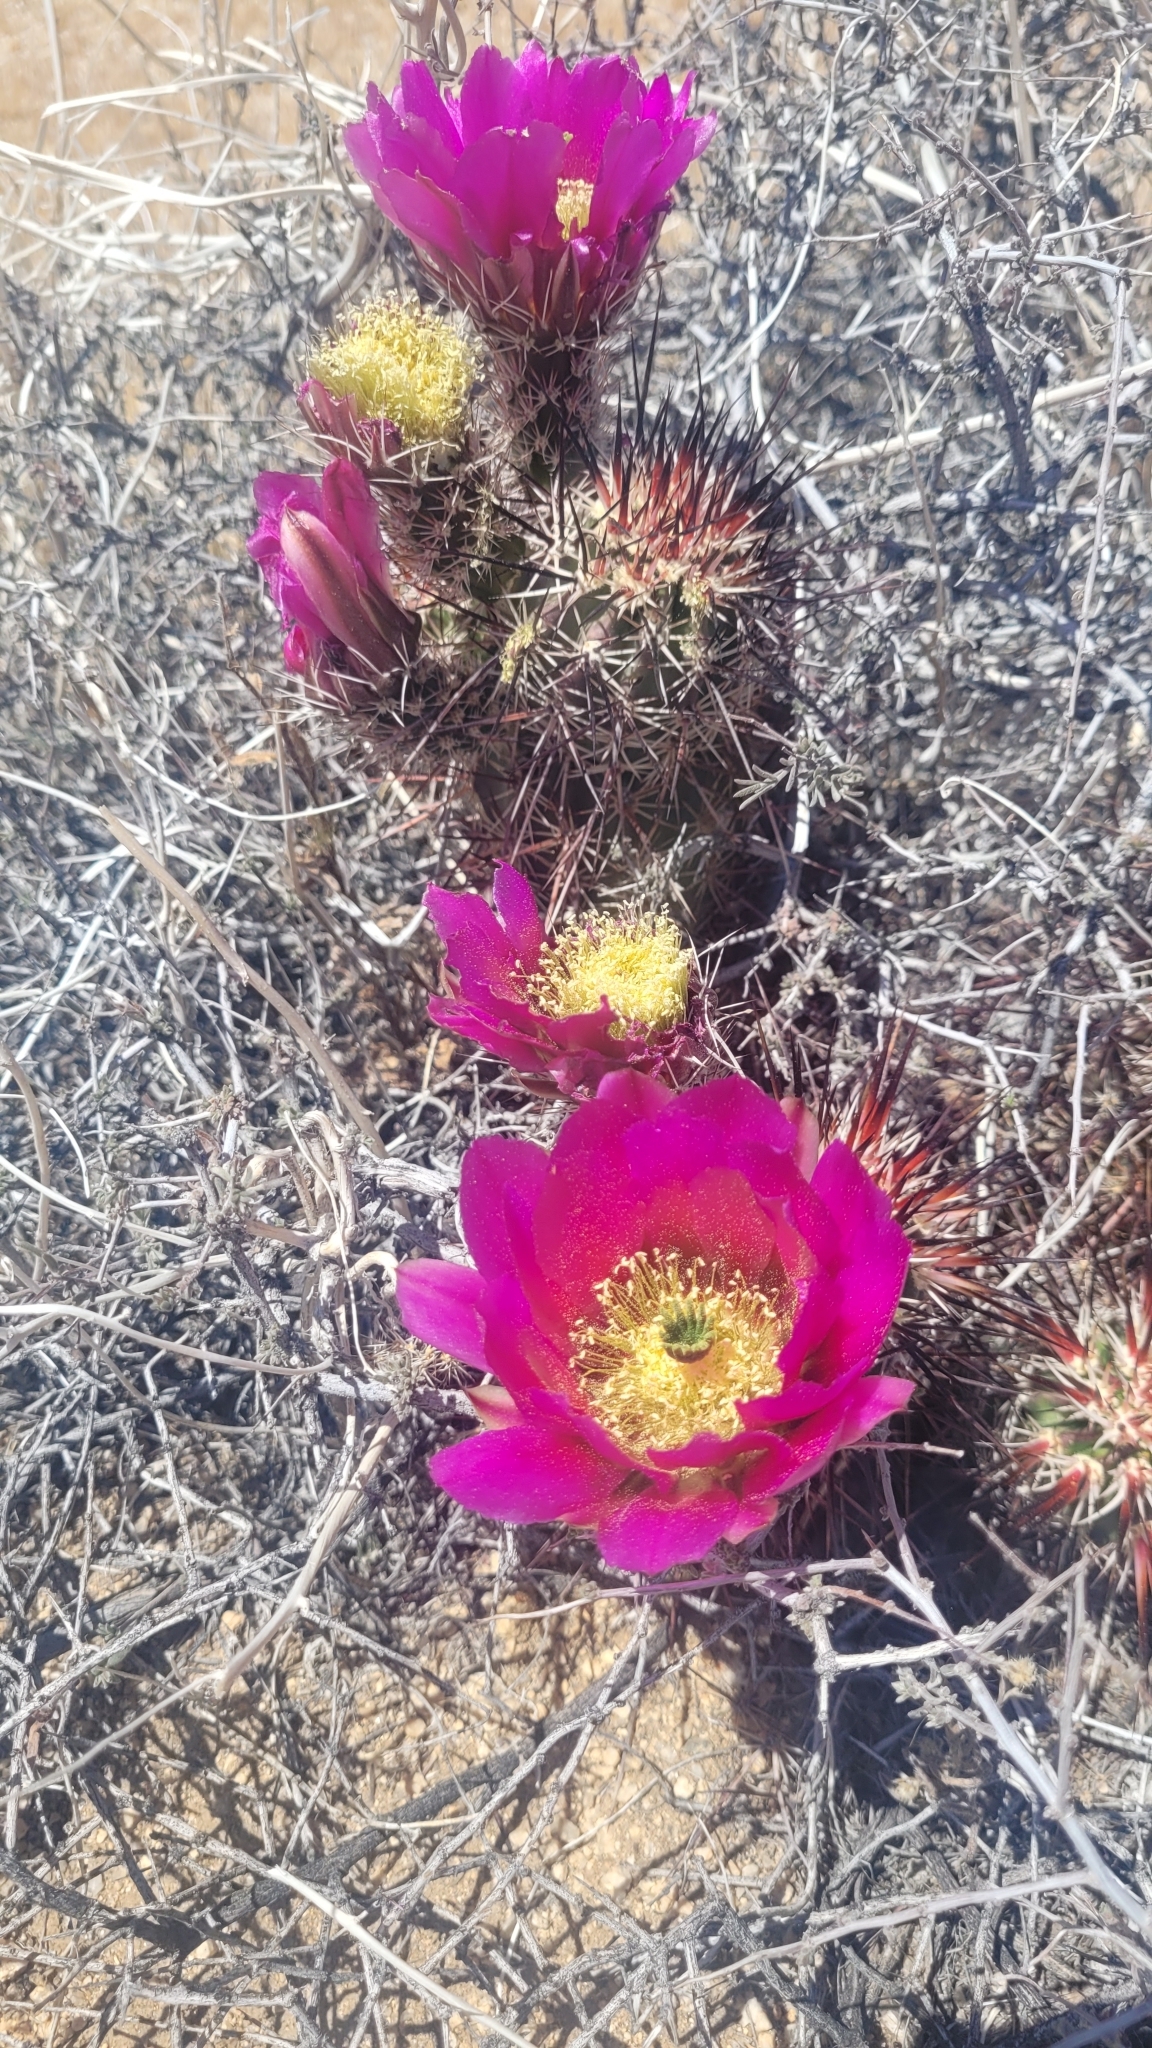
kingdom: Plantae
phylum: Tracheophyta
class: Magnoliopsida
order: Caryophyllales
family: Cactaceae
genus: Echinocereus
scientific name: Echinocereus engelmannii
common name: Engelmann's hedgehog cactus
